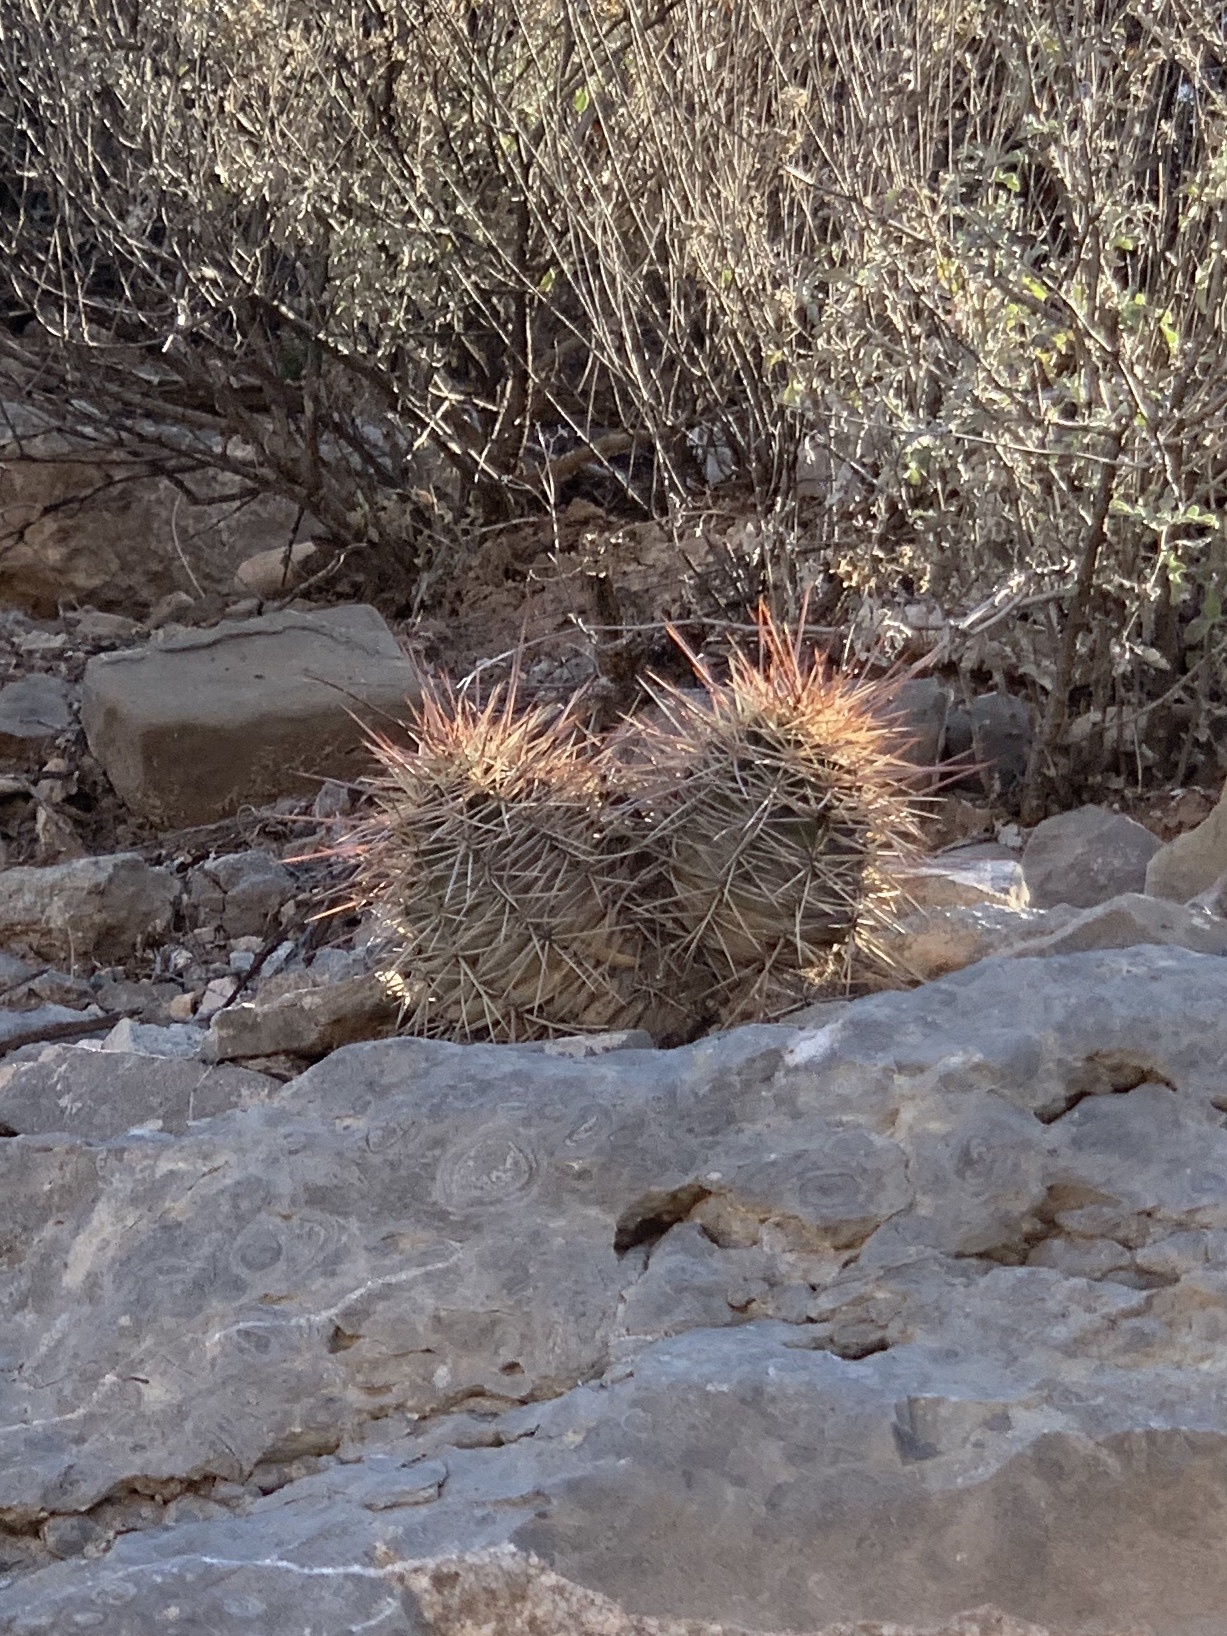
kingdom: Plantae
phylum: Tracheophyta
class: Magnoliopsida
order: Caryophyllales
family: Cactaceae
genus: Echinocereus
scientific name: Echinocereus coccineus
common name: Scarlet hedgehog cactus
